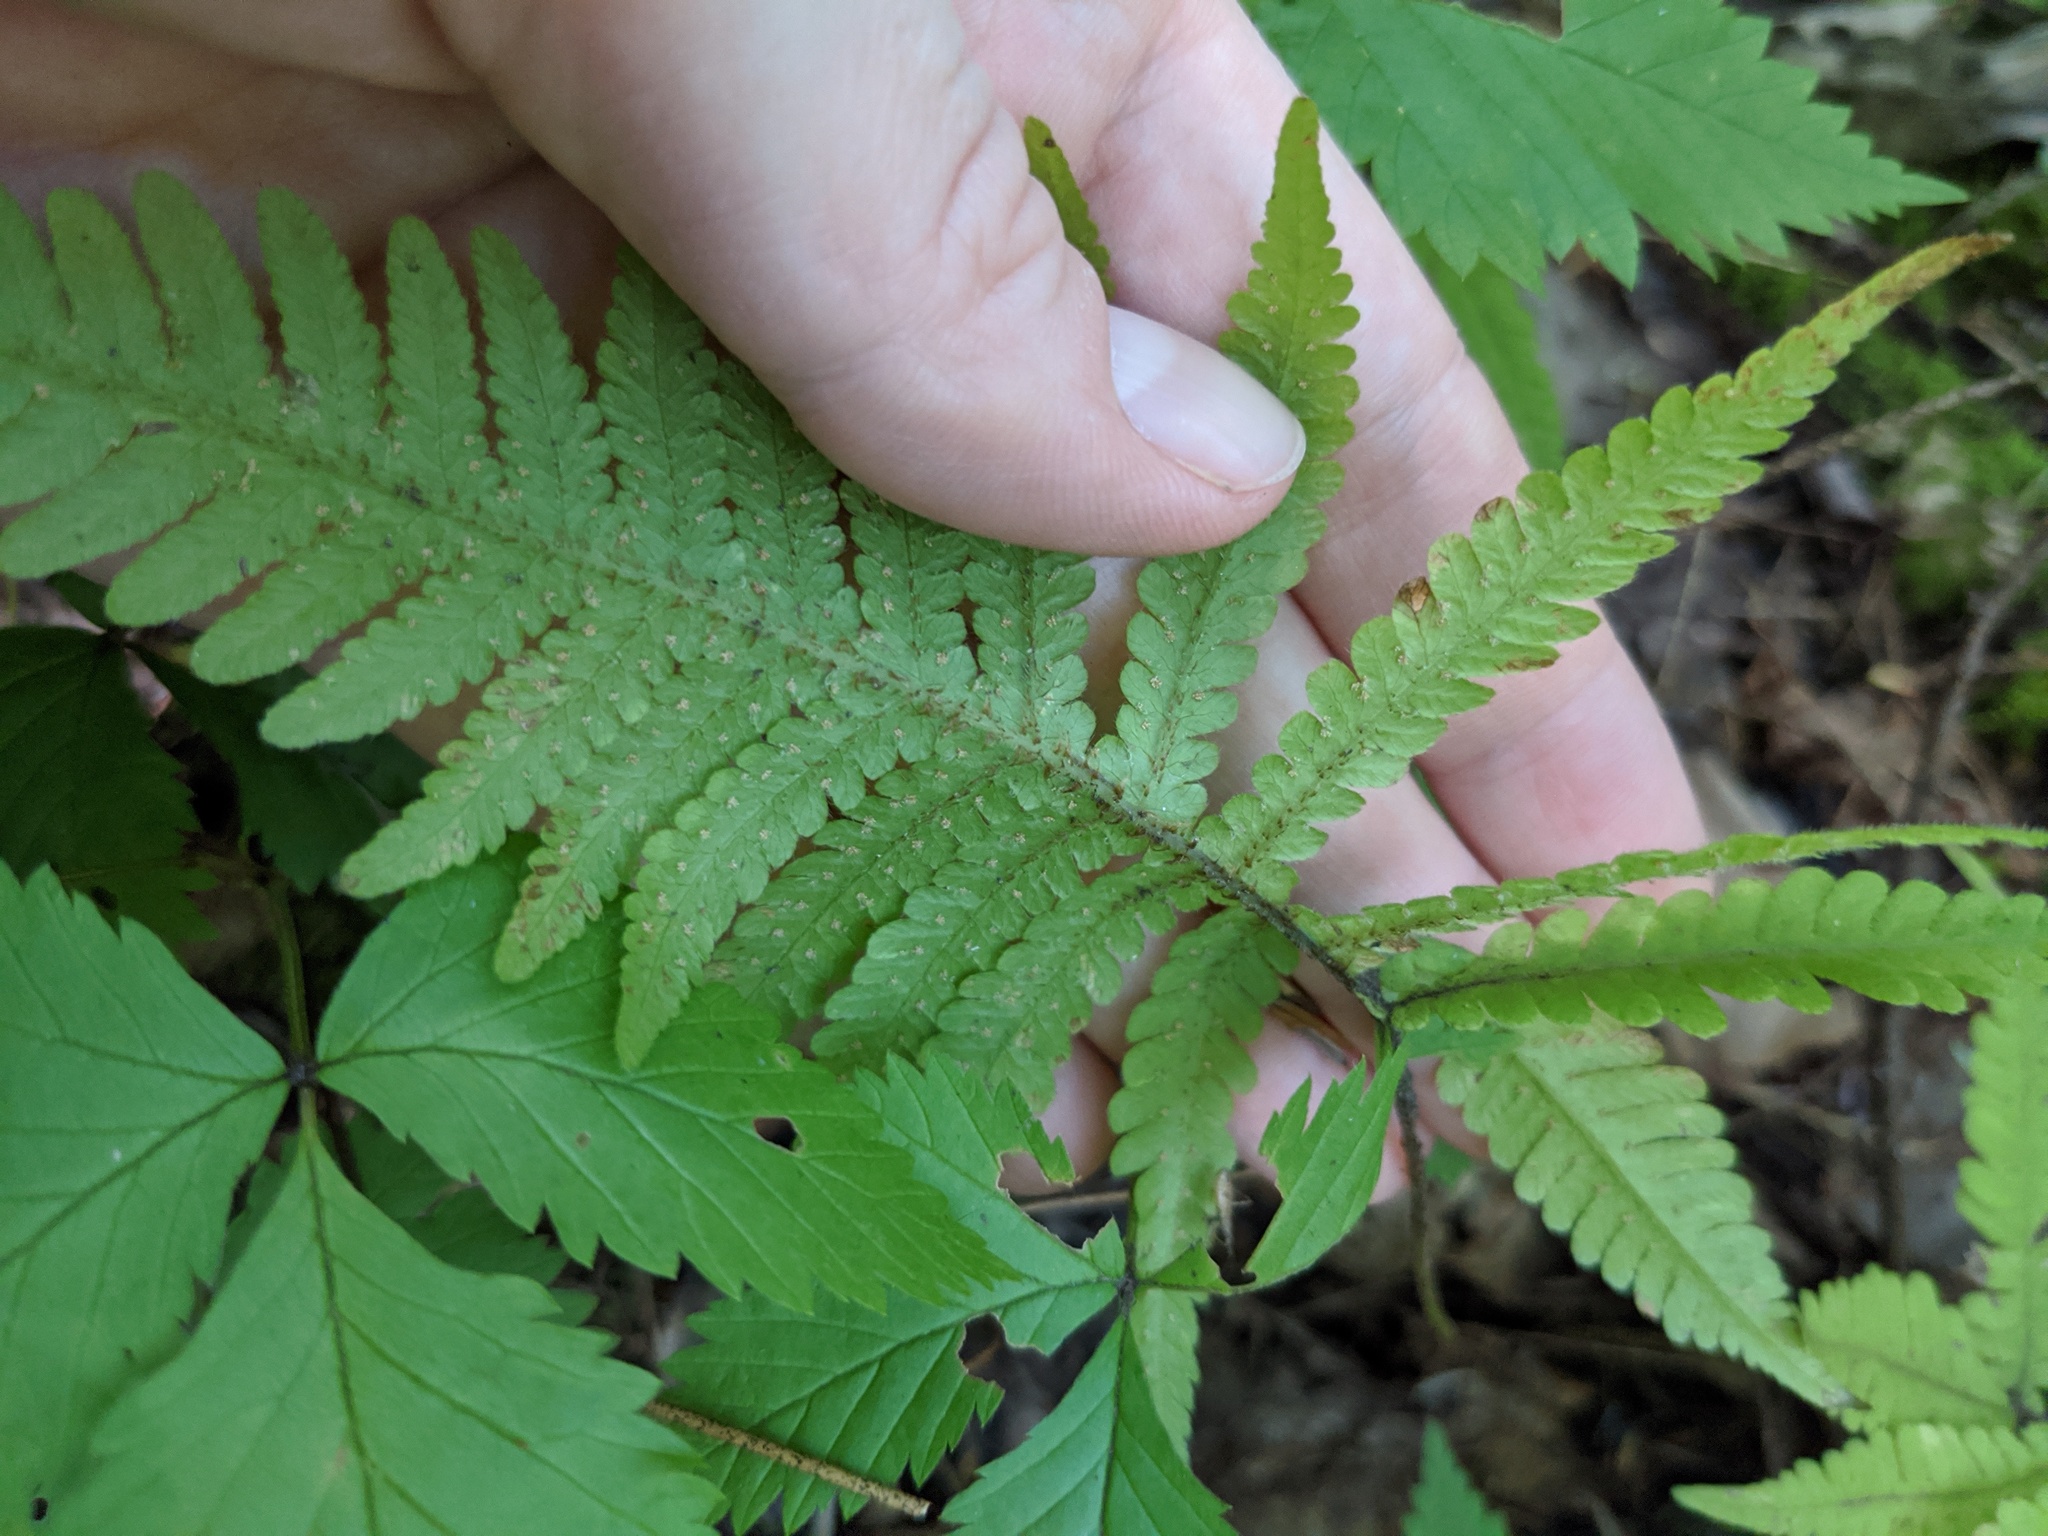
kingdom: Plantae
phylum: Tracheophyta
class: Polypodiopsida
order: Polypodiales
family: Thelypteridaceae
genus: Phegopteris
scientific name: Phegopteris connectilis
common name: Beech fern
